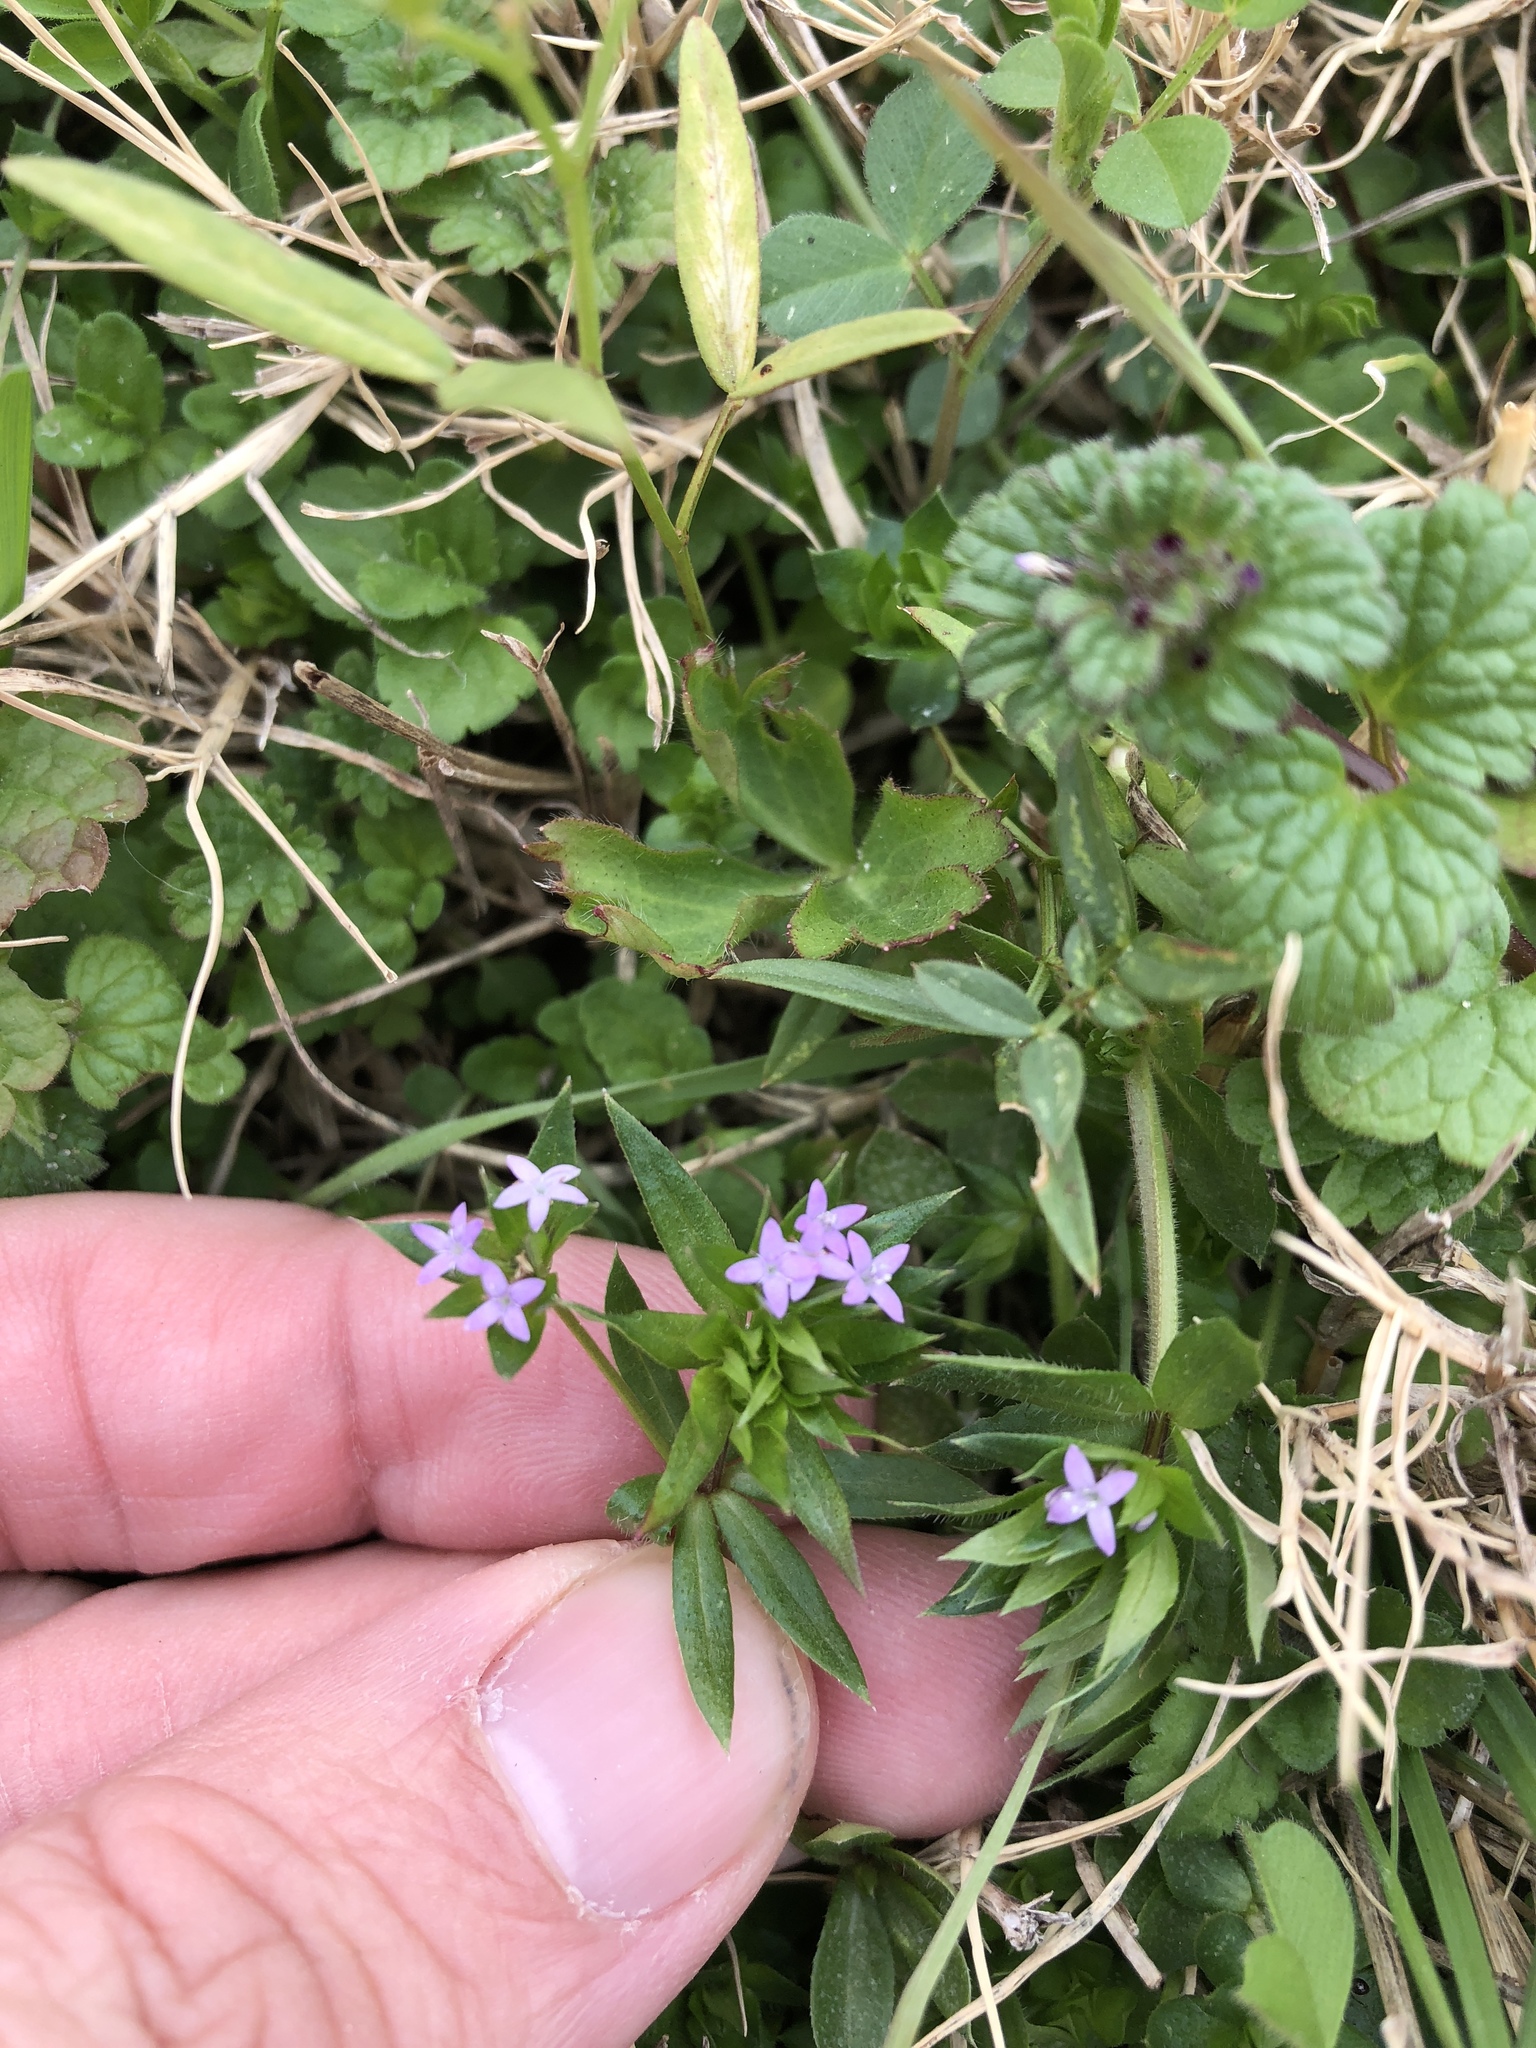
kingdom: Plantae
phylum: Tracheophyta
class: Magnoliopsida
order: Gentianales
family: Rubiaceae
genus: Sherardia
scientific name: Sherardia arvensis
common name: Field madder
